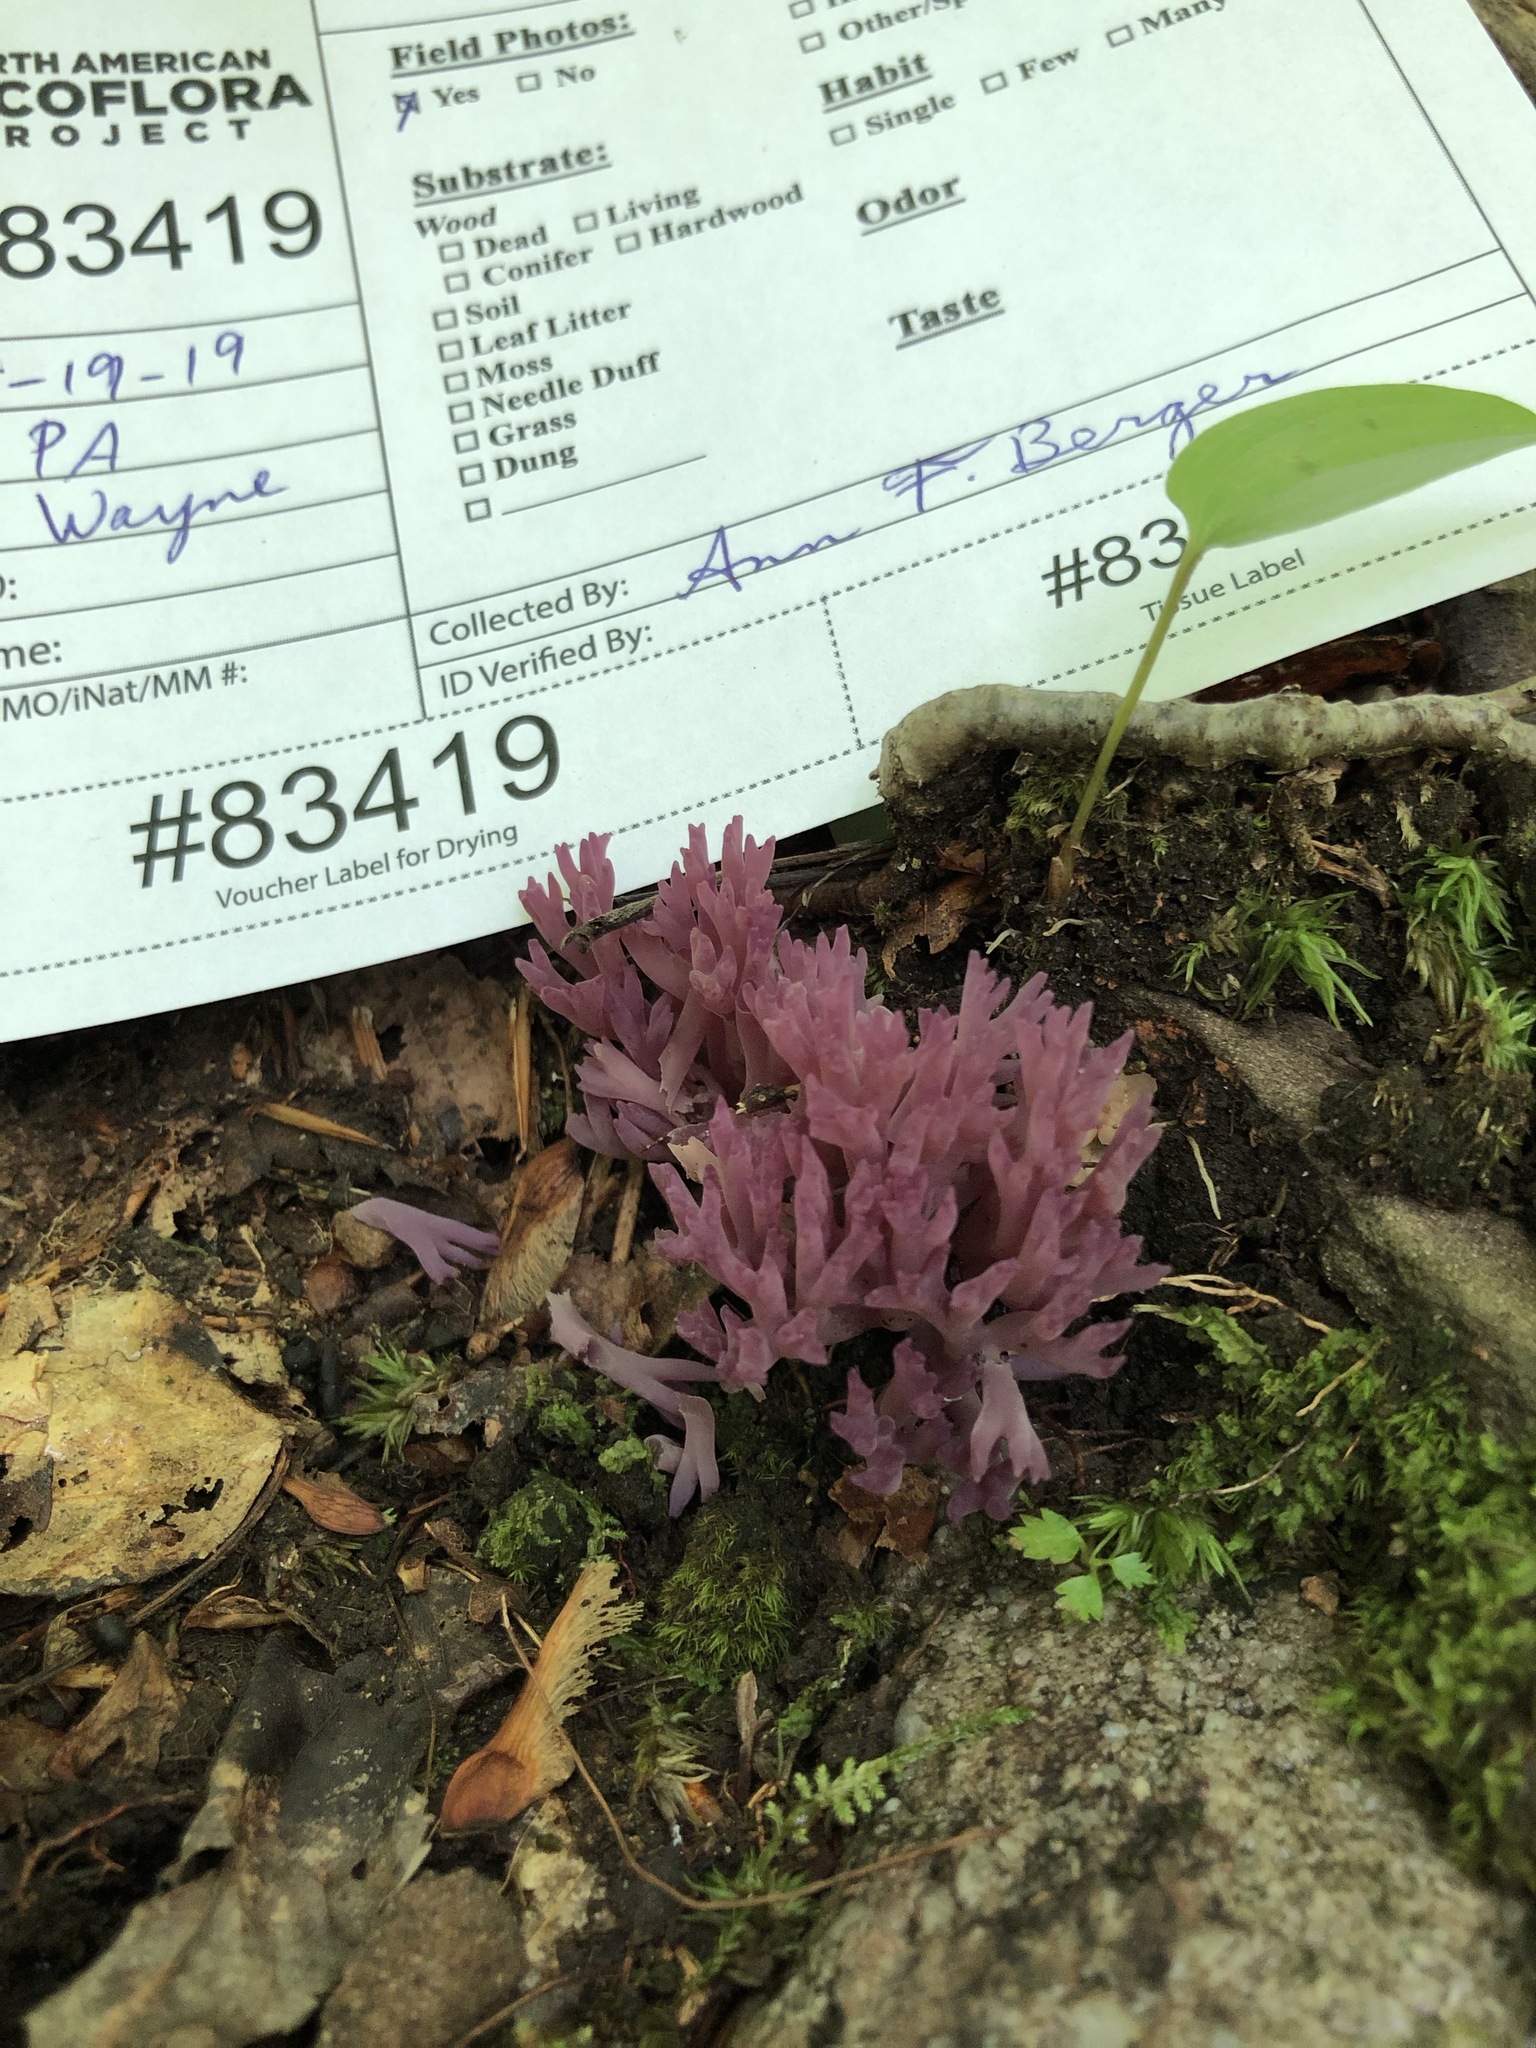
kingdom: Fungi
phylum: Basidiomycota
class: Agaricomycetes
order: Agaricales
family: Clavariaceae
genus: Clavaria
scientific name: Clavaria zollingeri
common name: Violet coral
